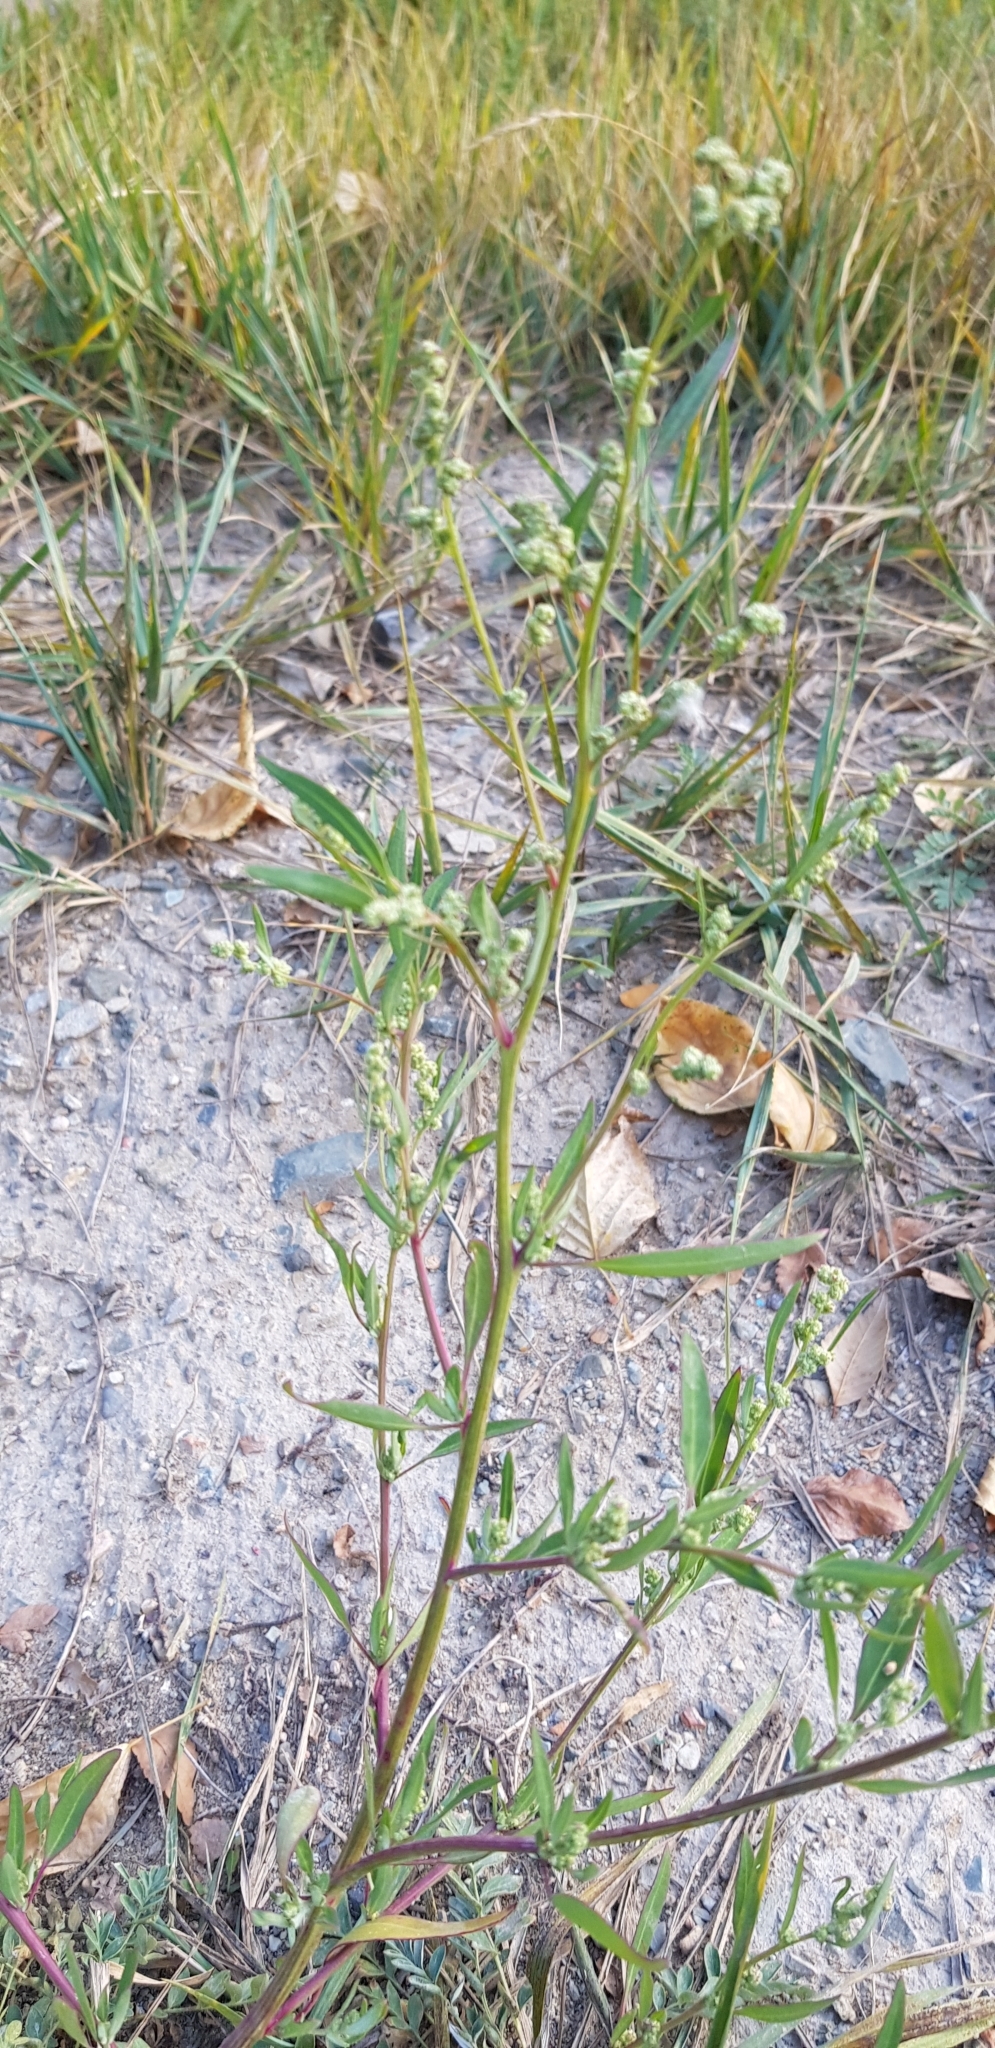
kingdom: Plantae
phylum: Tracheophyta
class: Magnoliopsida
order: Caryophyllales
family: Amaranthaceae
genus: Chenopodium
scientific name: Chenopodium betaceum
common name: Striped goosefoot
